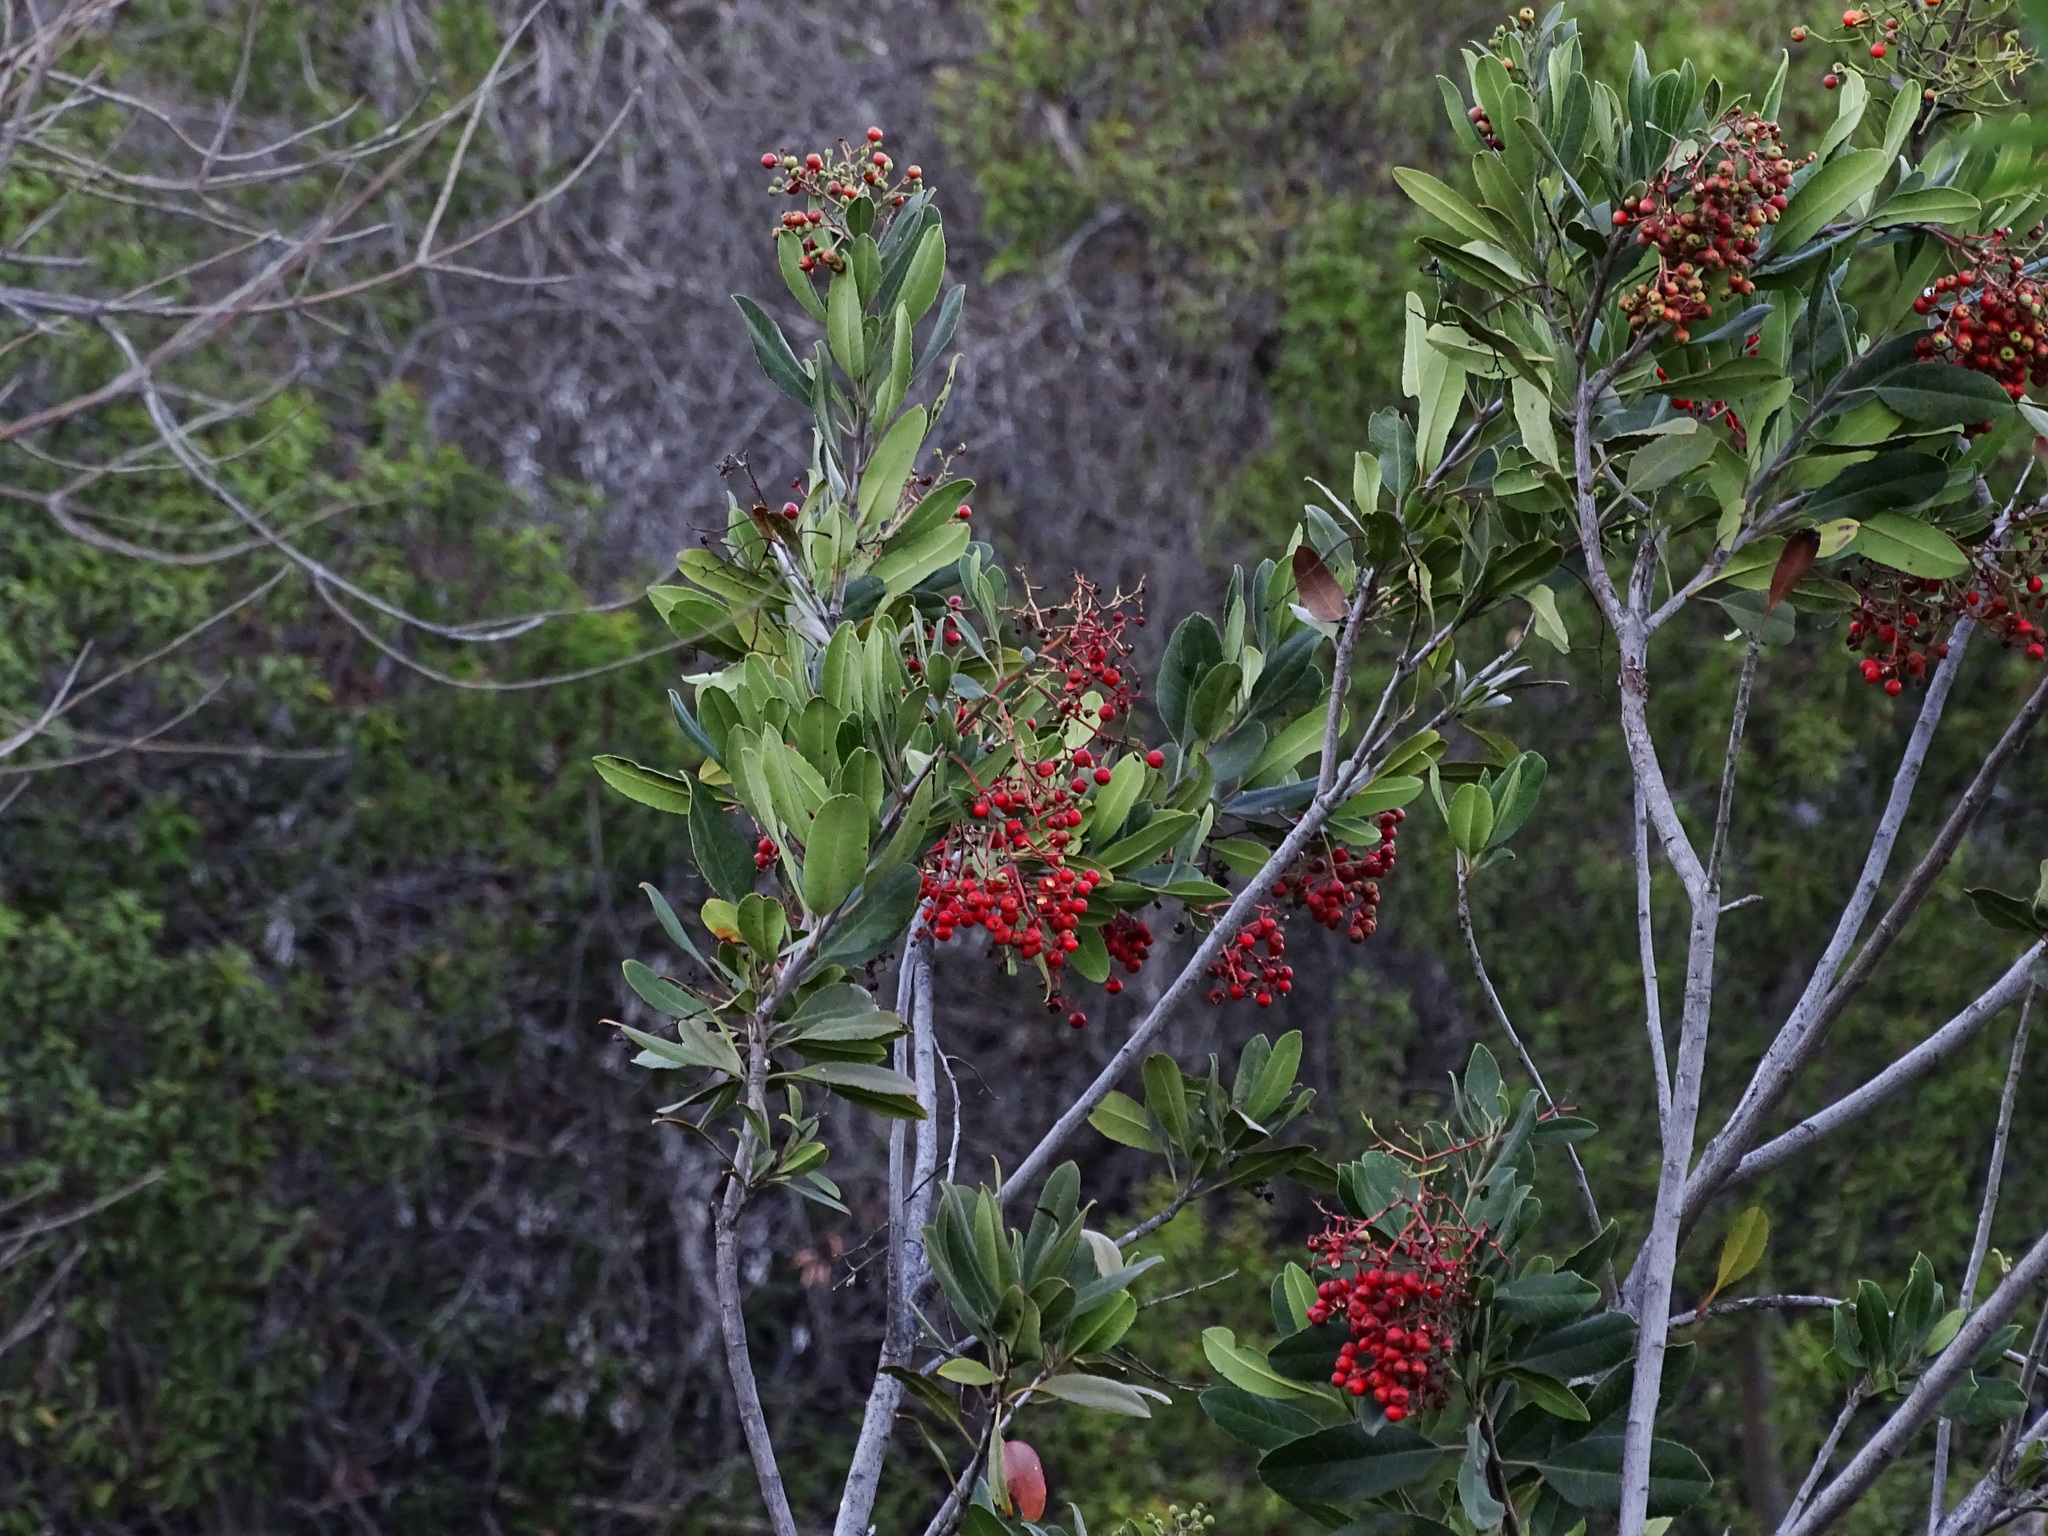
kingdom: Plantae
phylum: Tracheophyta
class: Magnoliopsida
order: Rosales
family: Rosaceae
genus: Heteromeles
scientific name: Heteromeles arbutifolia
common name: California-holly
